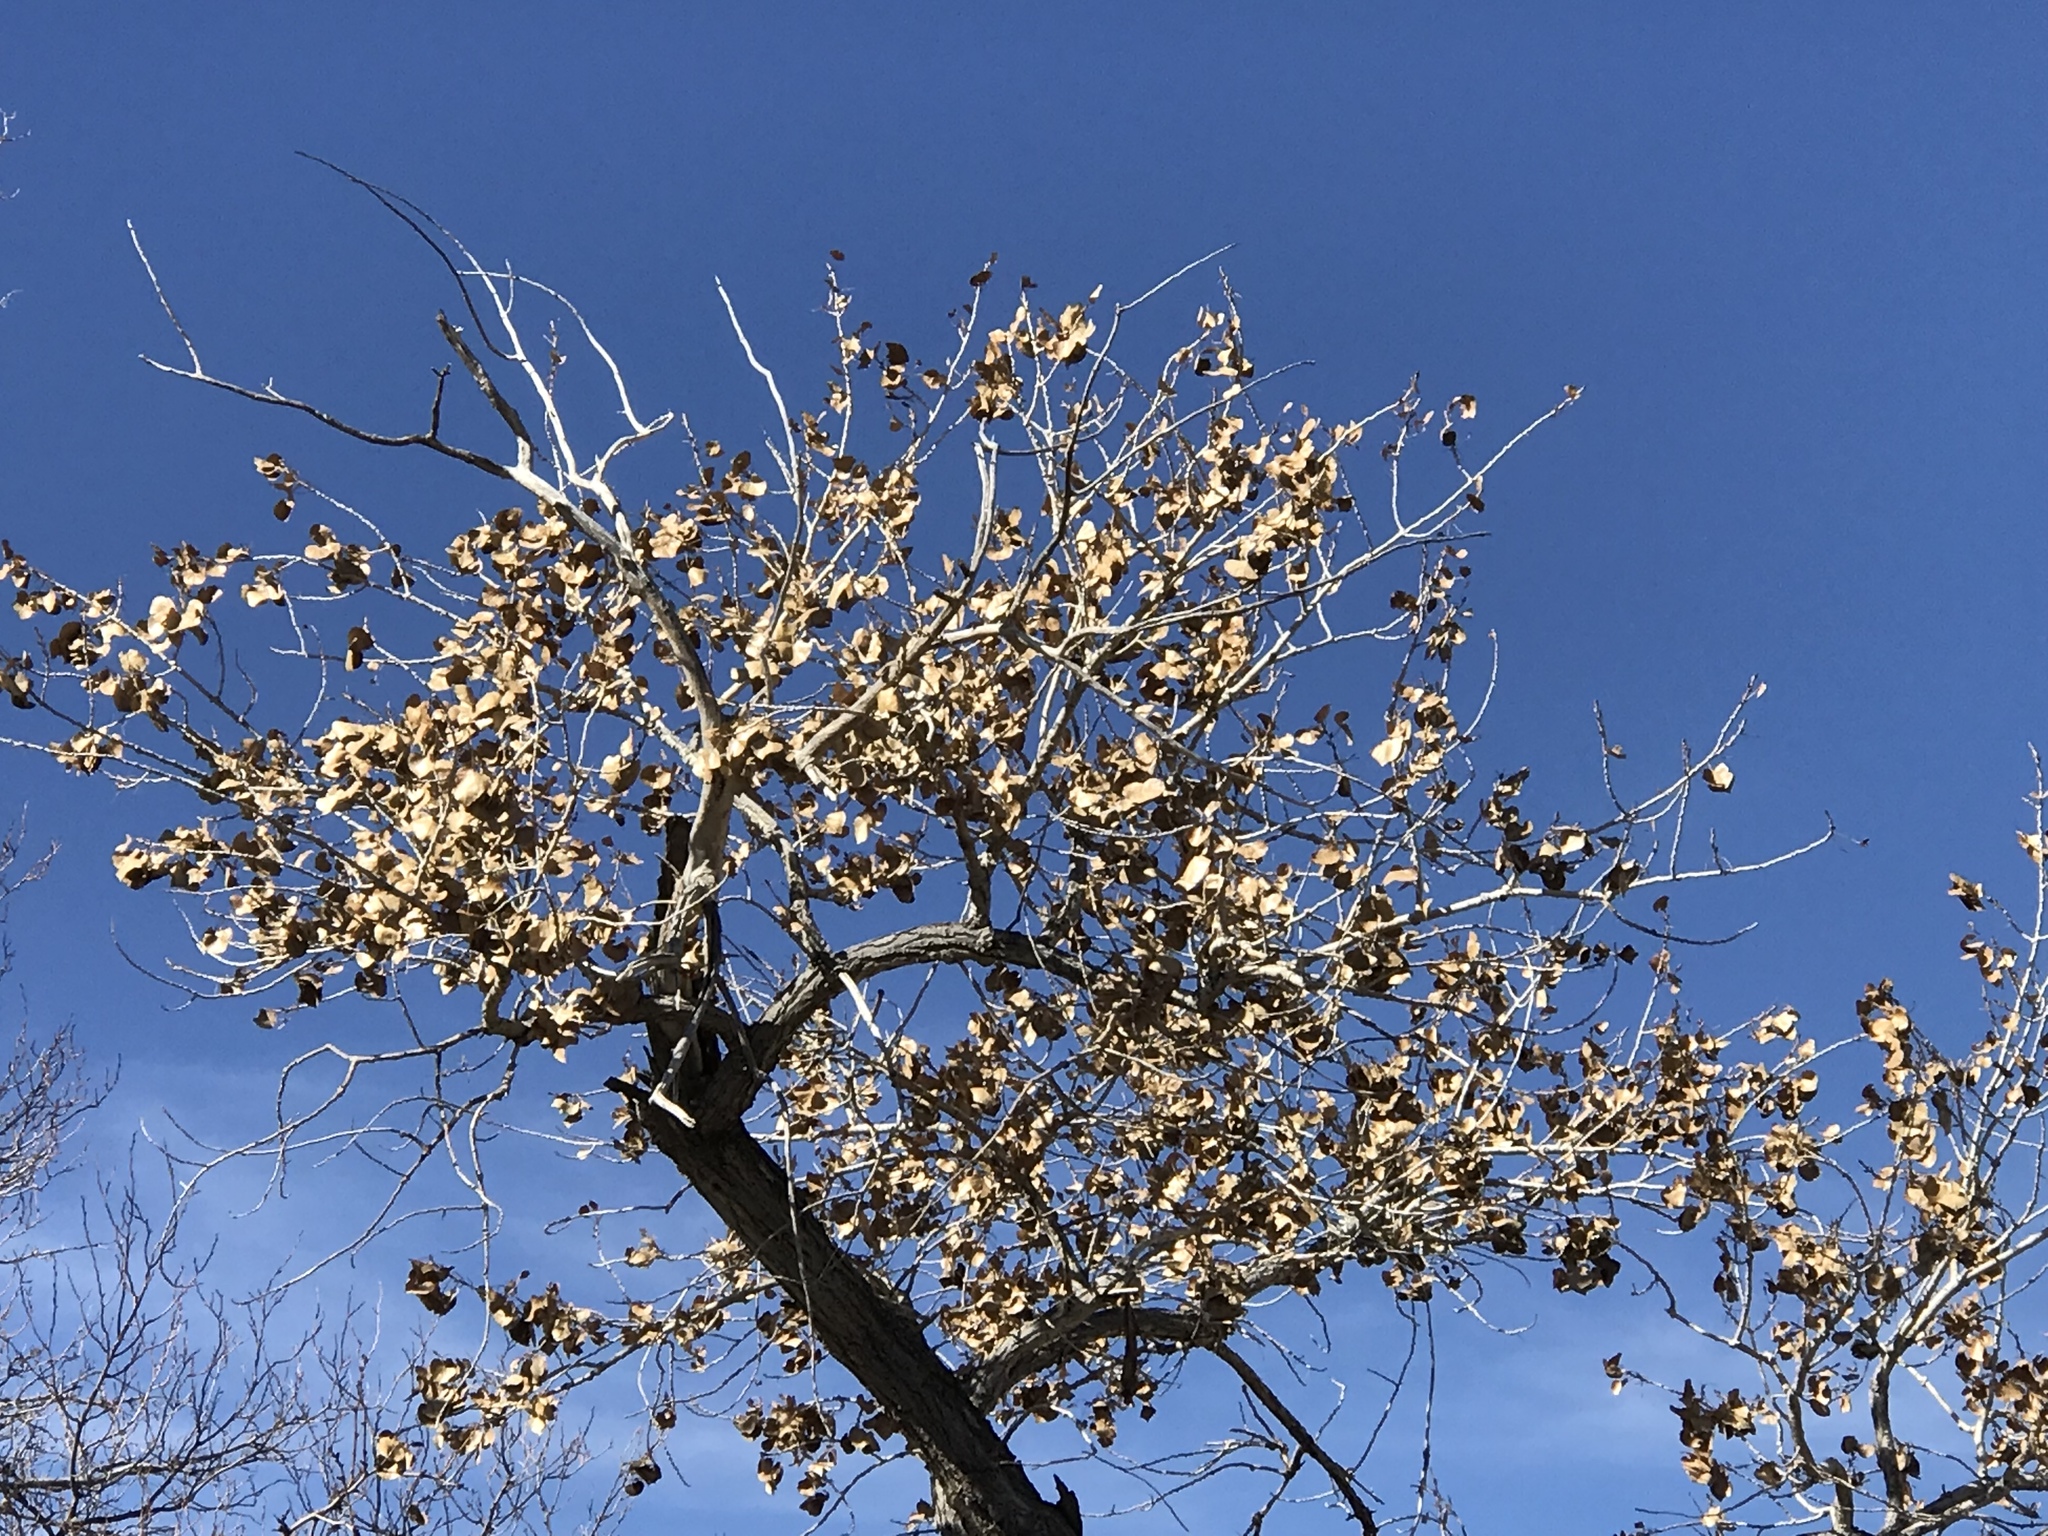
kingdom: Plantae
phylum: Tracheophyta
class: Magnoliopsida
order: Malpighiales
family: Salicaceae
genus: Populus
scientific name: Populus fremontii
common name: Fremont's cottonwood
